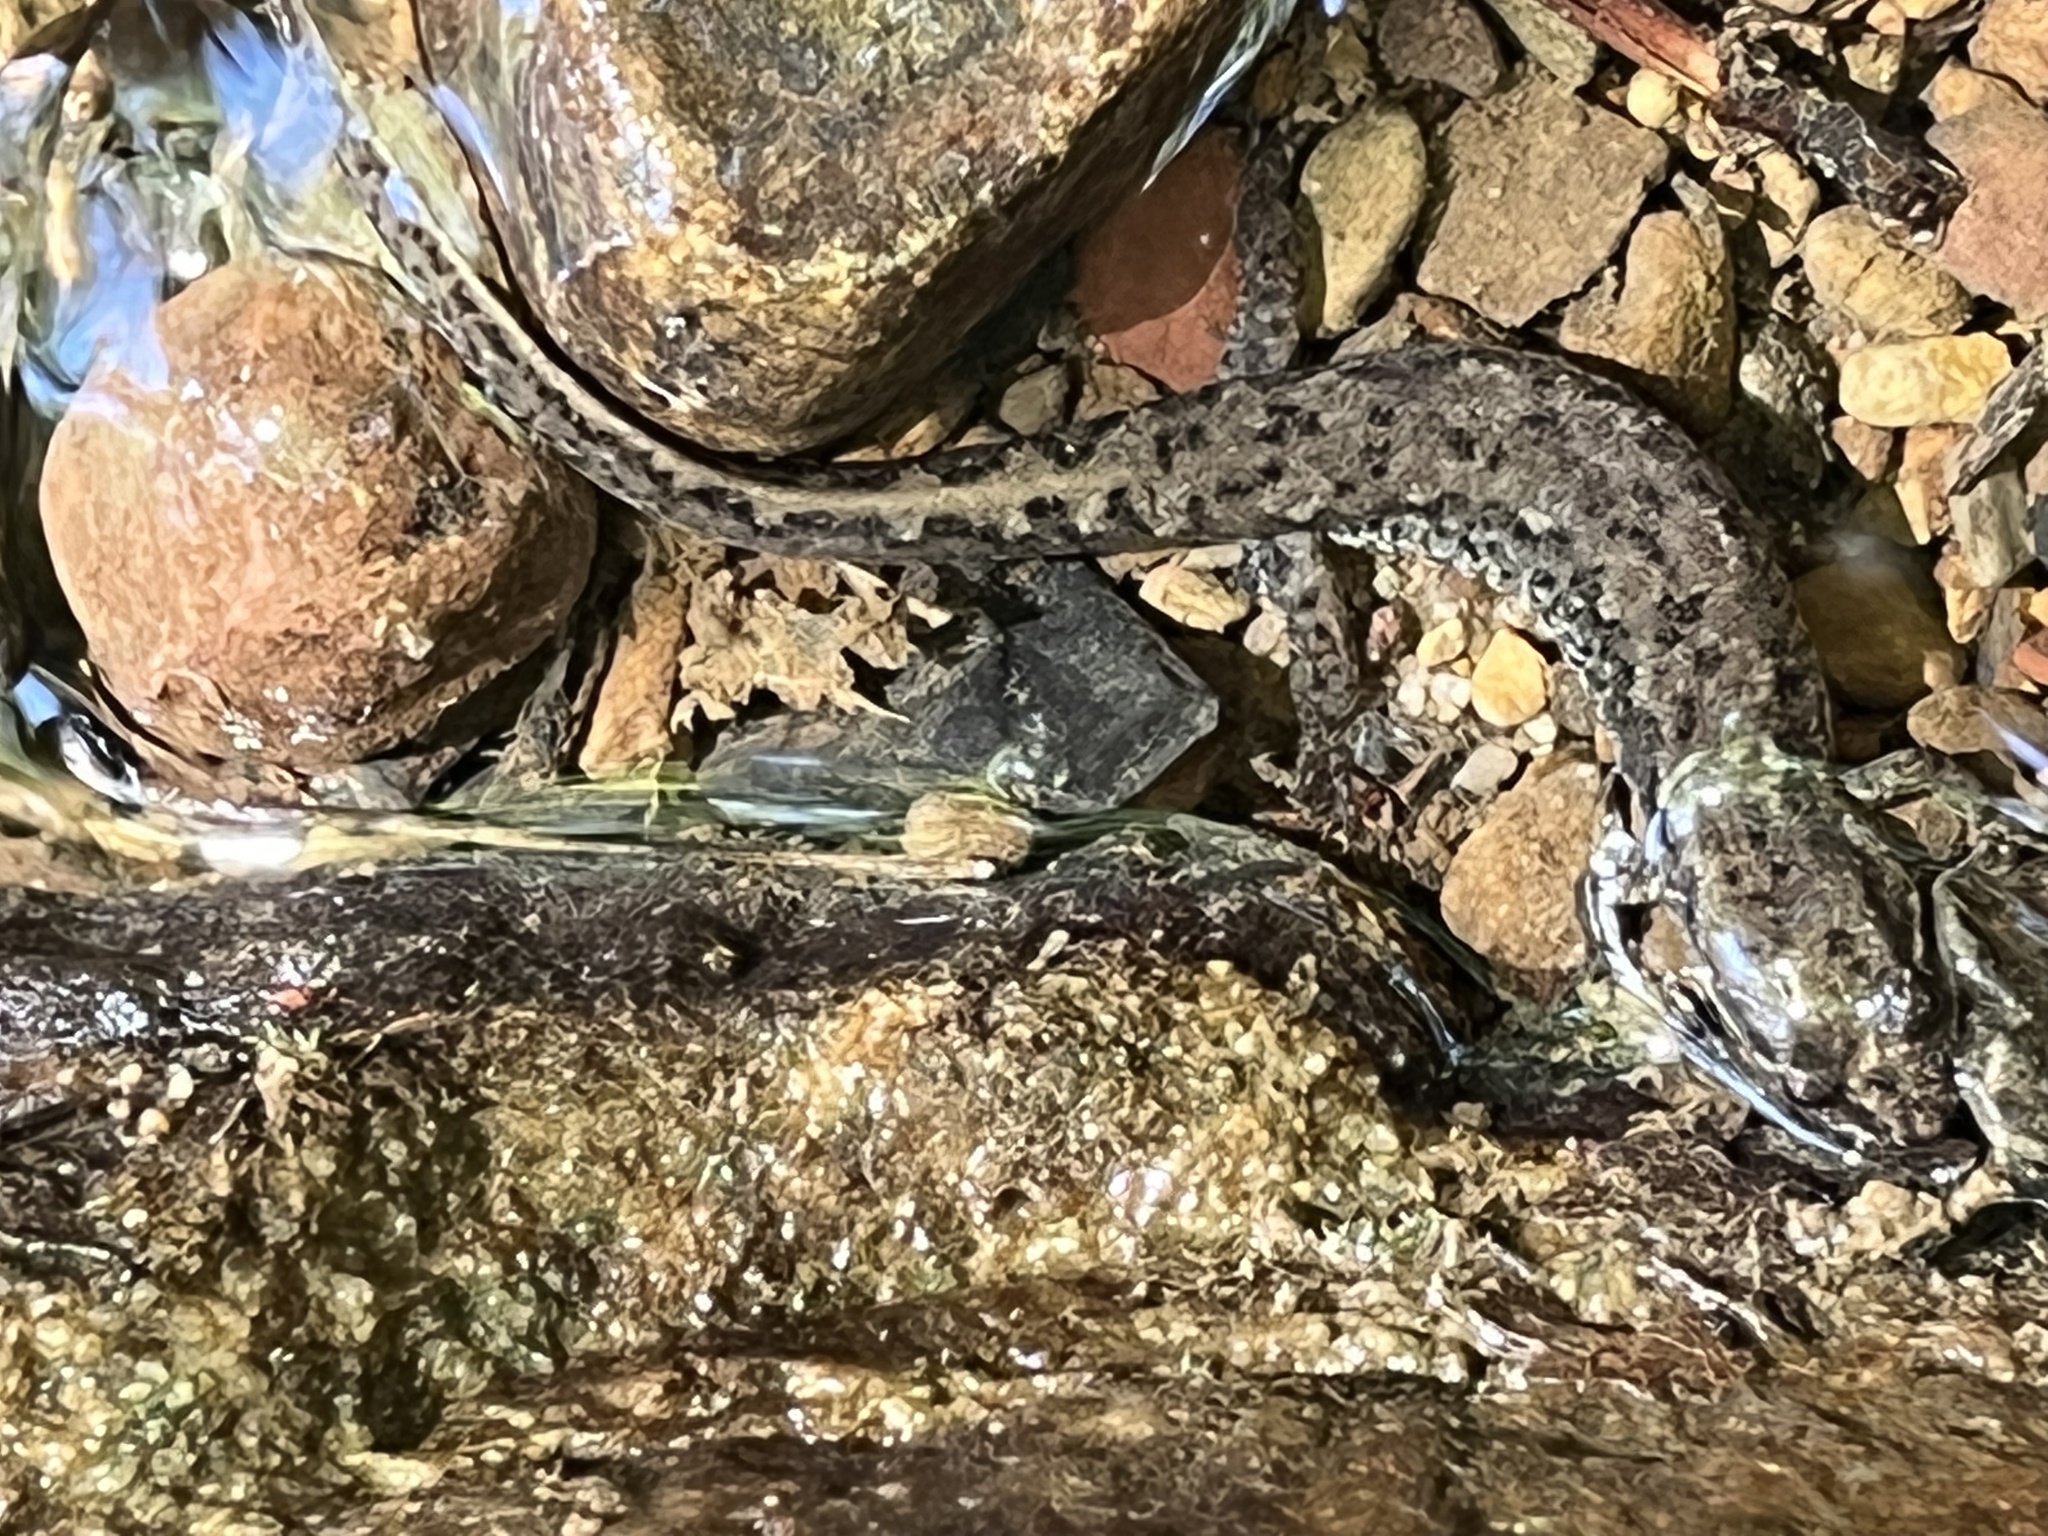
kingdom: Animalia
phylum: Chordata
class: Amphibia
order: Caudata
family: Plethodontidae
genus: Desmognathus
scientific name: Desmognathus conanti
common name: Spotted dusky salamander
